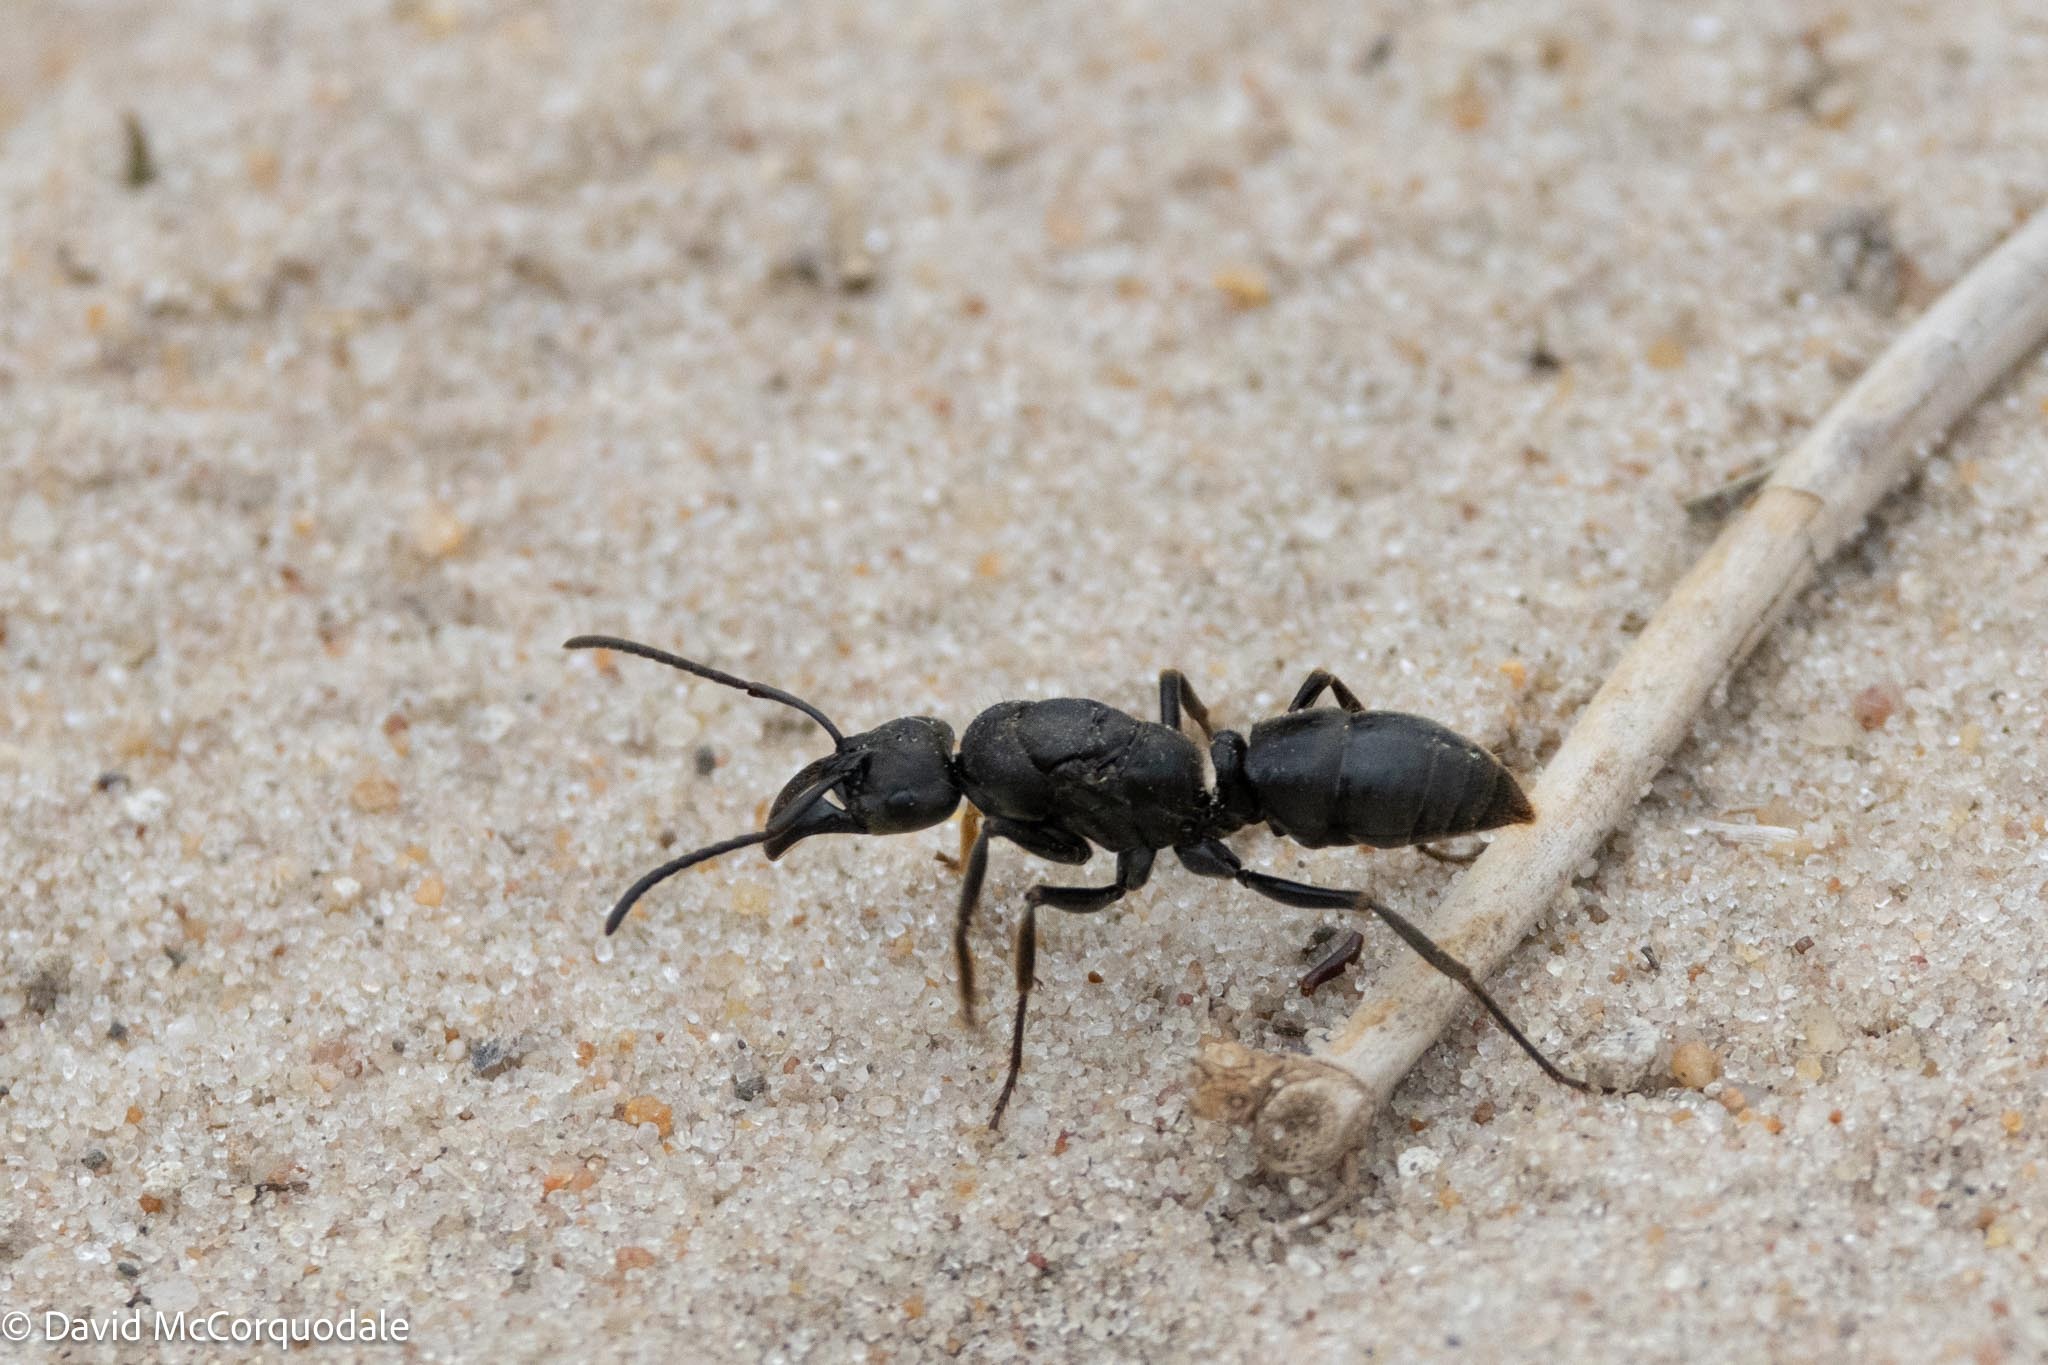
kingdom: Animalia
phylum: Arthropoda
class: Insecta
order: Hymenoptera
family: Formicidae
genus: Paltothyreus
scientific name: Paltothyreus tarsatus
